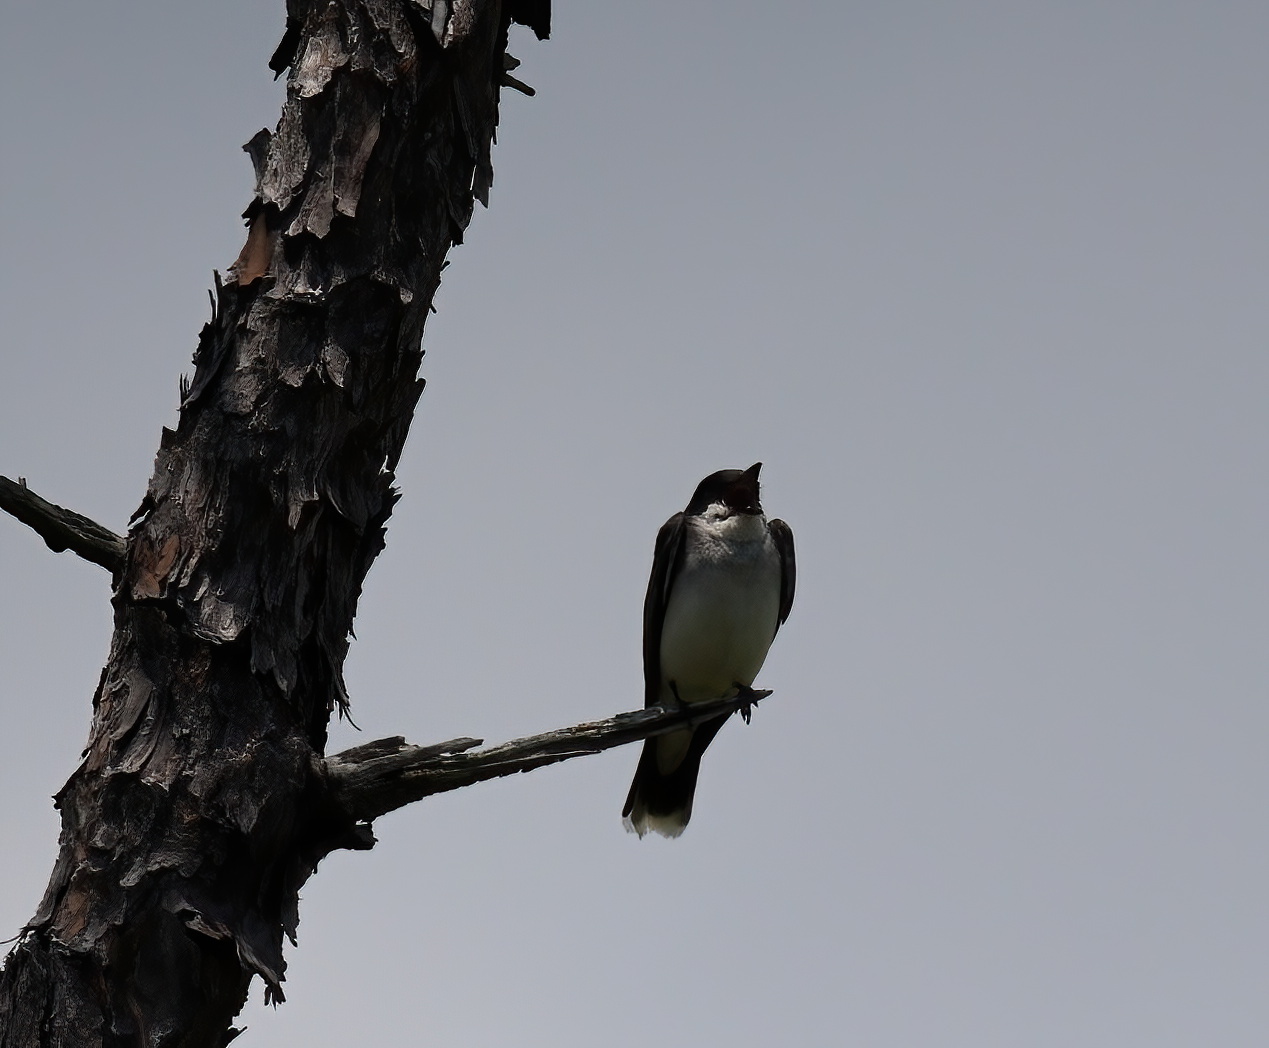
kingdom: Animalia
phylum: Chordata
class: Aves
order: Passeriformes
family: Tyrannidae
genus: Tyrannus
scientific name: Tyrannus tyrannus
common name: Eastern kingbird
